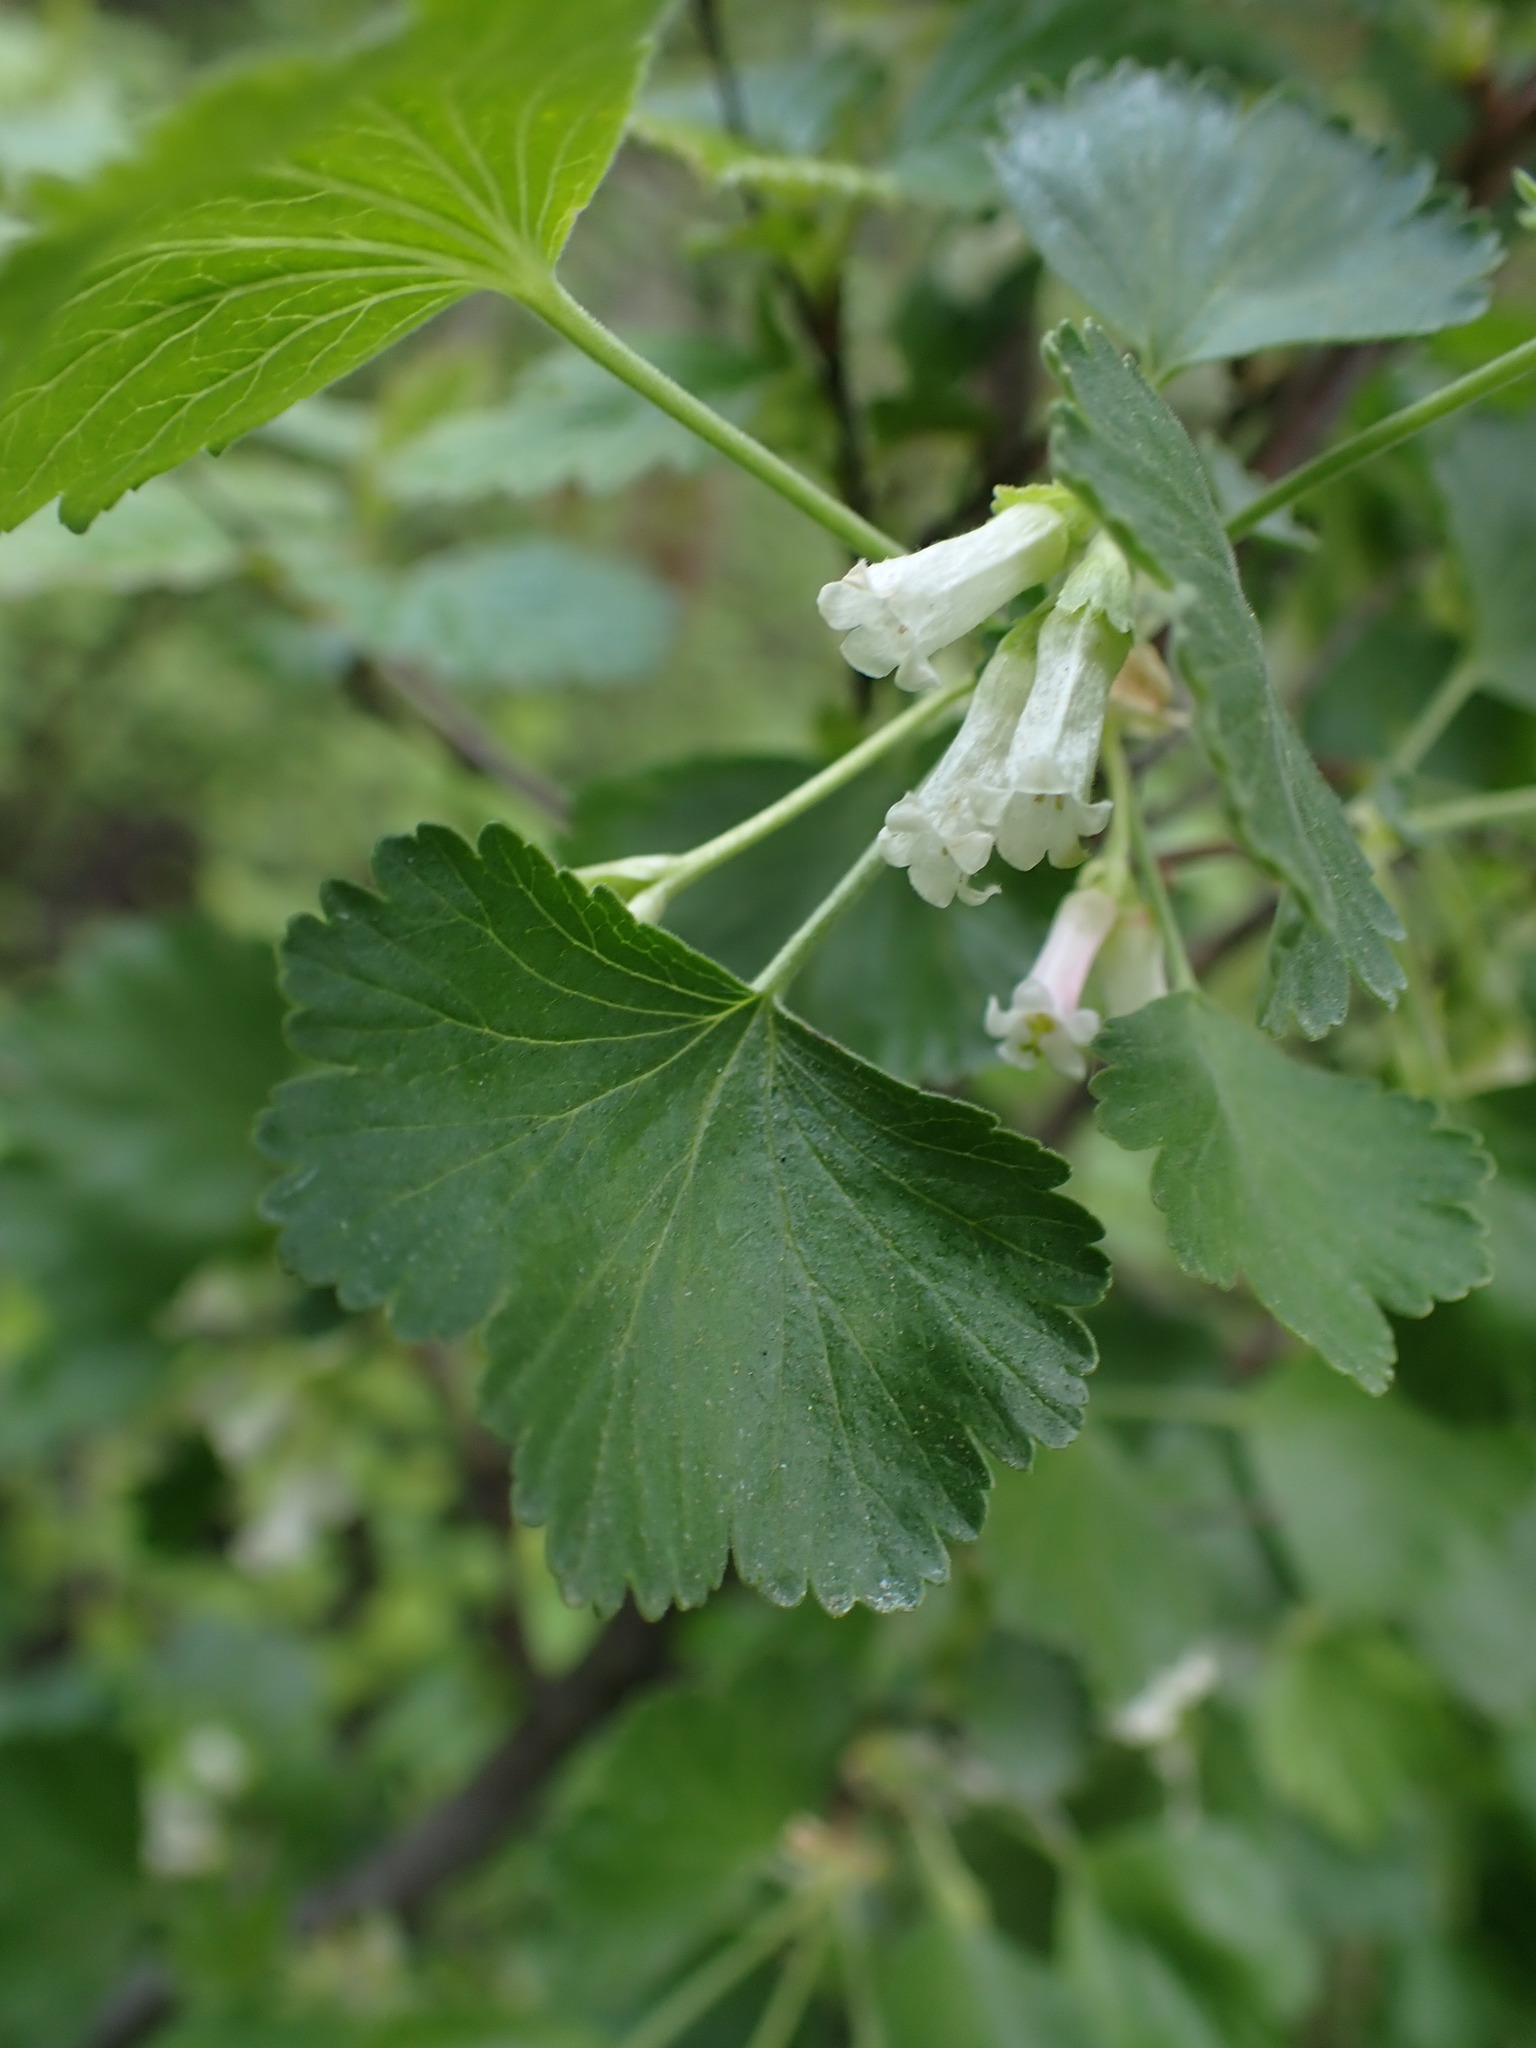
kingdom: Plantae
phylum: Tracheophyta
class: Magnoliopsida
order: Saxifragales
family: Grossulariaceae
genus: Ribes
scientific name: Ribes cereum
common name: Wax currant
